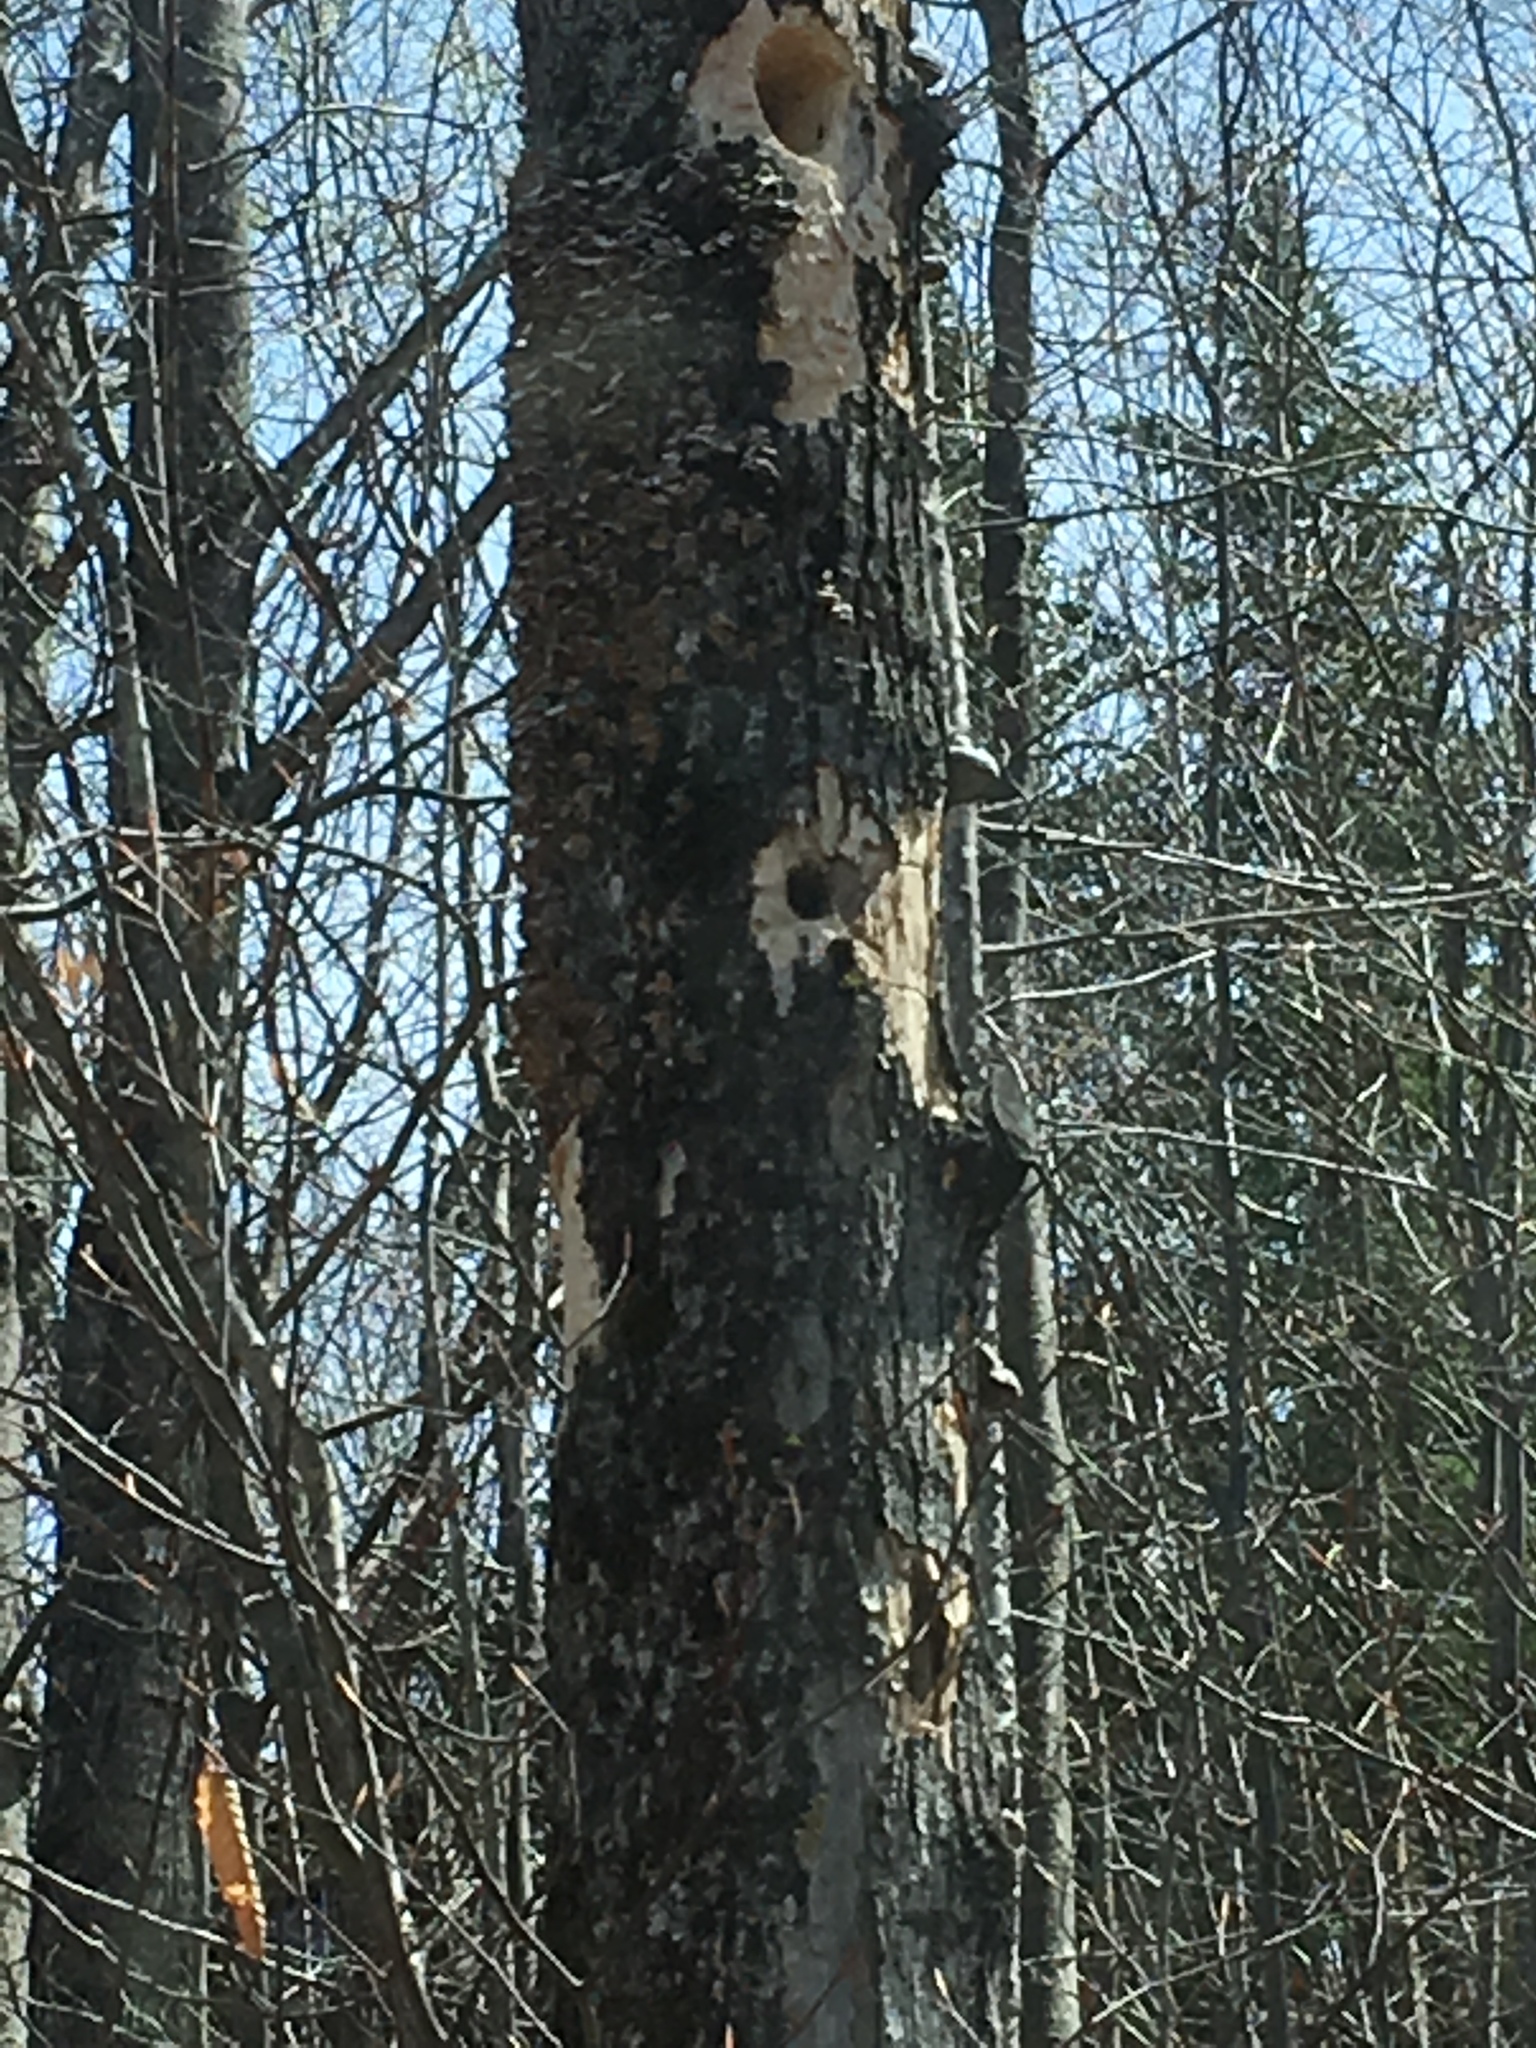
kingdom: Animalia
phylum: Chordata
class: Aves
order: Piciformes
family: Picidae
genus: Dryocopus
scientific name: Dryocopus pileatus
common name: Pileated woodpecker
